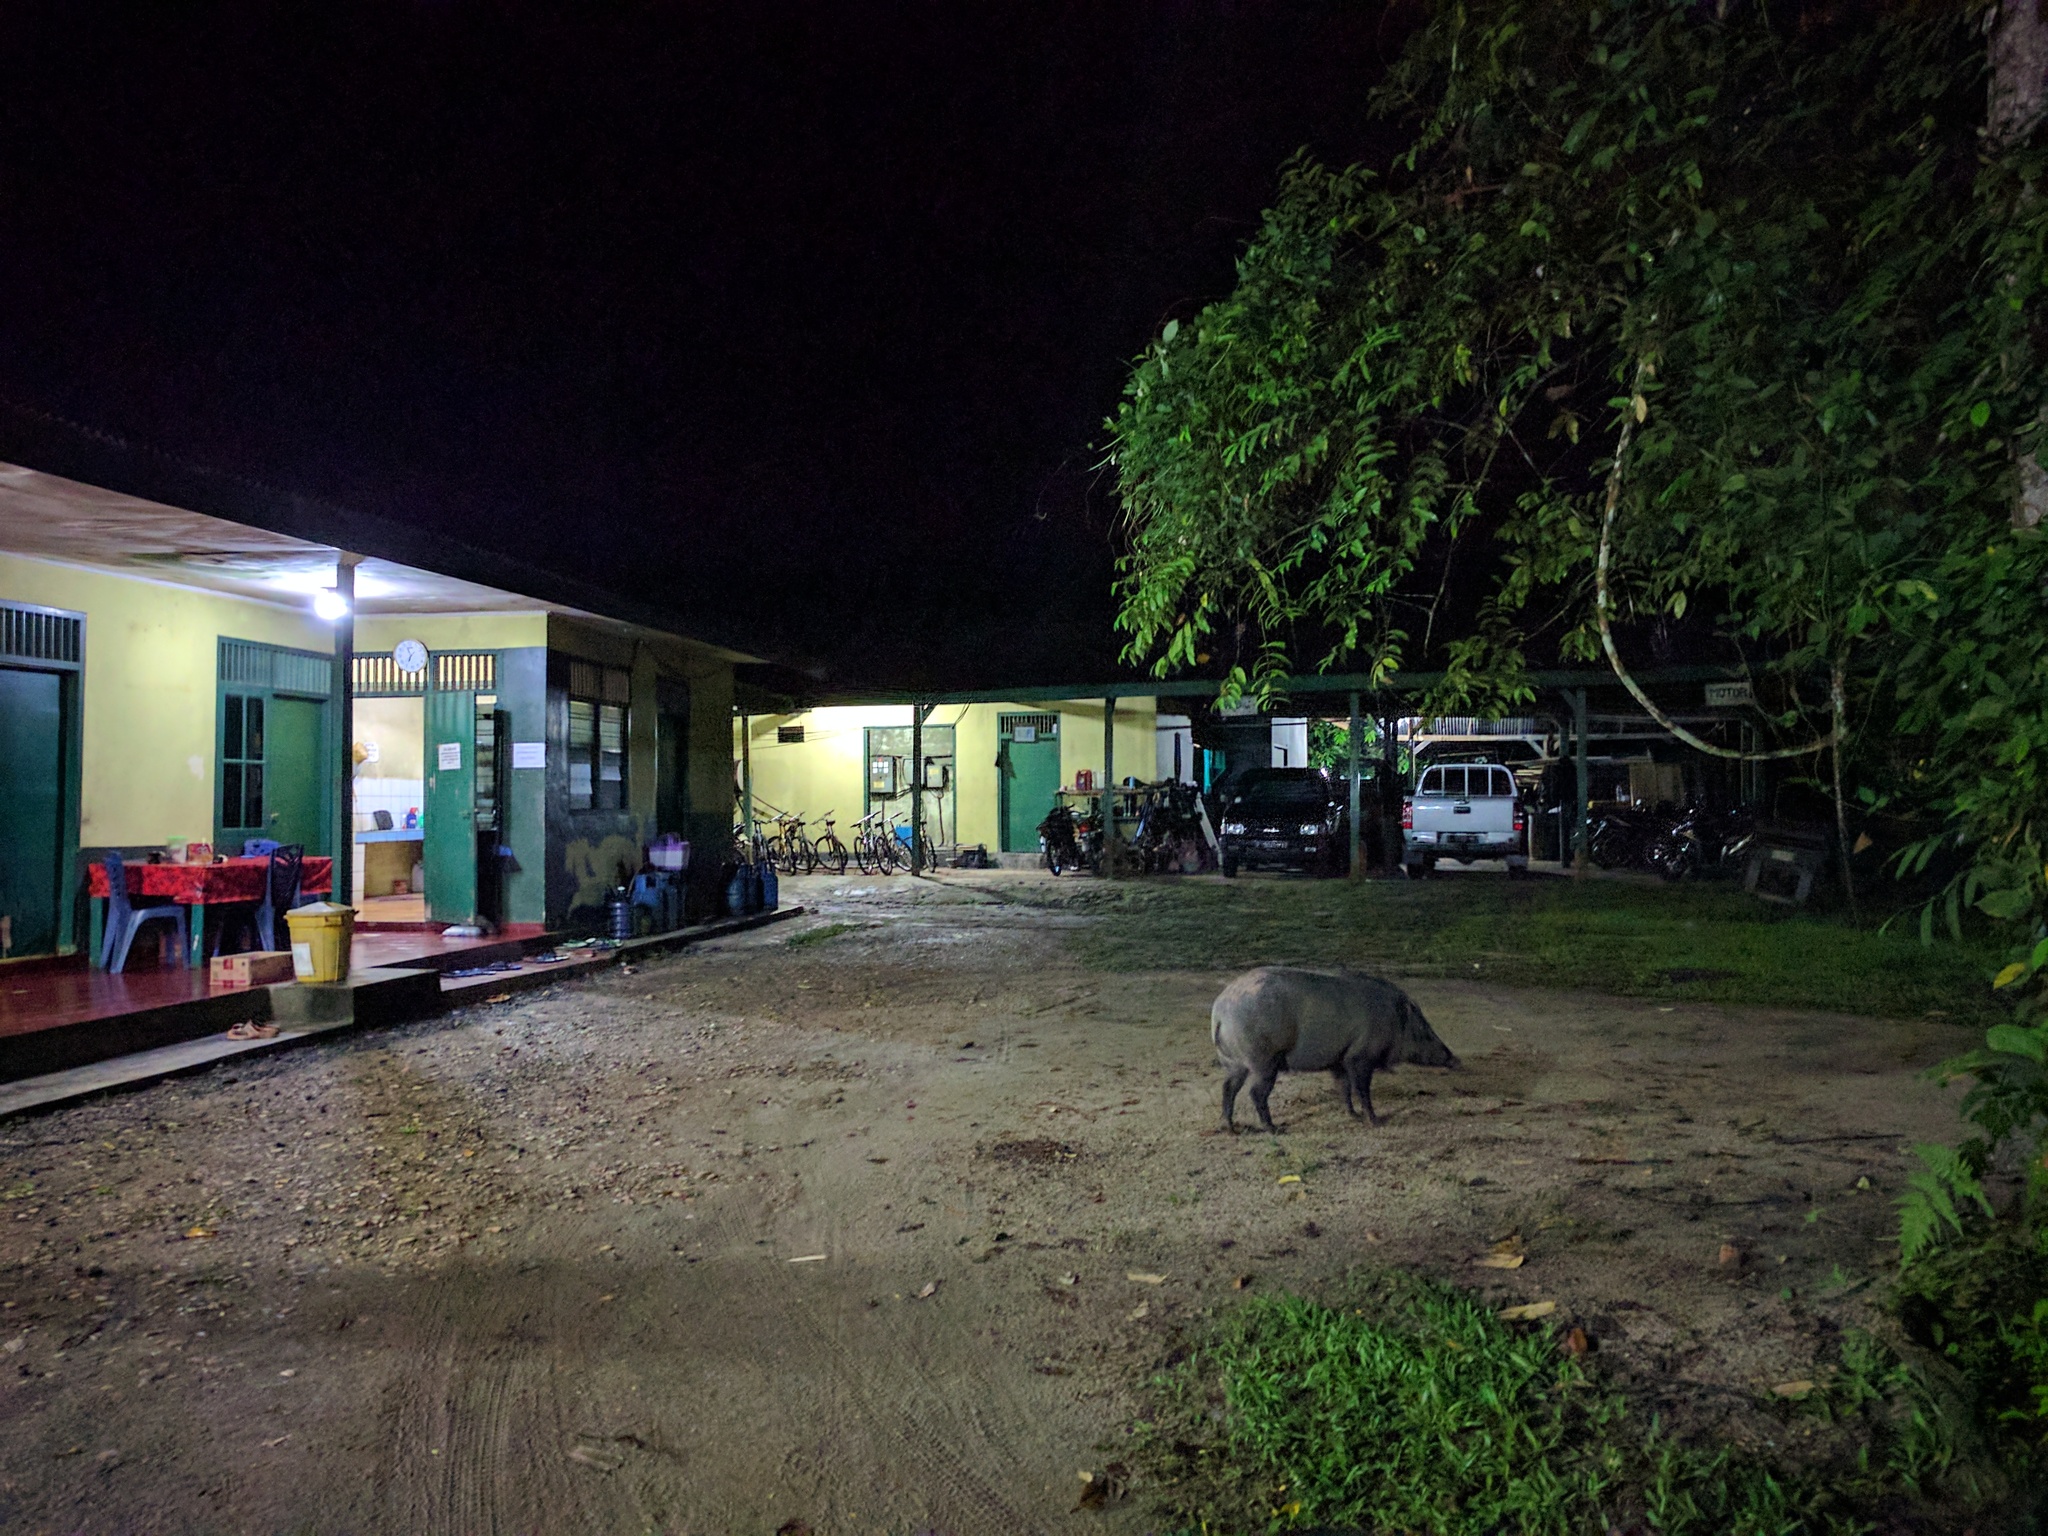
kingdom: Animalia
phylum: Chordata
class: Mammalia
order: Artiodactyla
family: Suidae
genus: Sus
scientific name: Sus scrofa
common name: Wild boar
